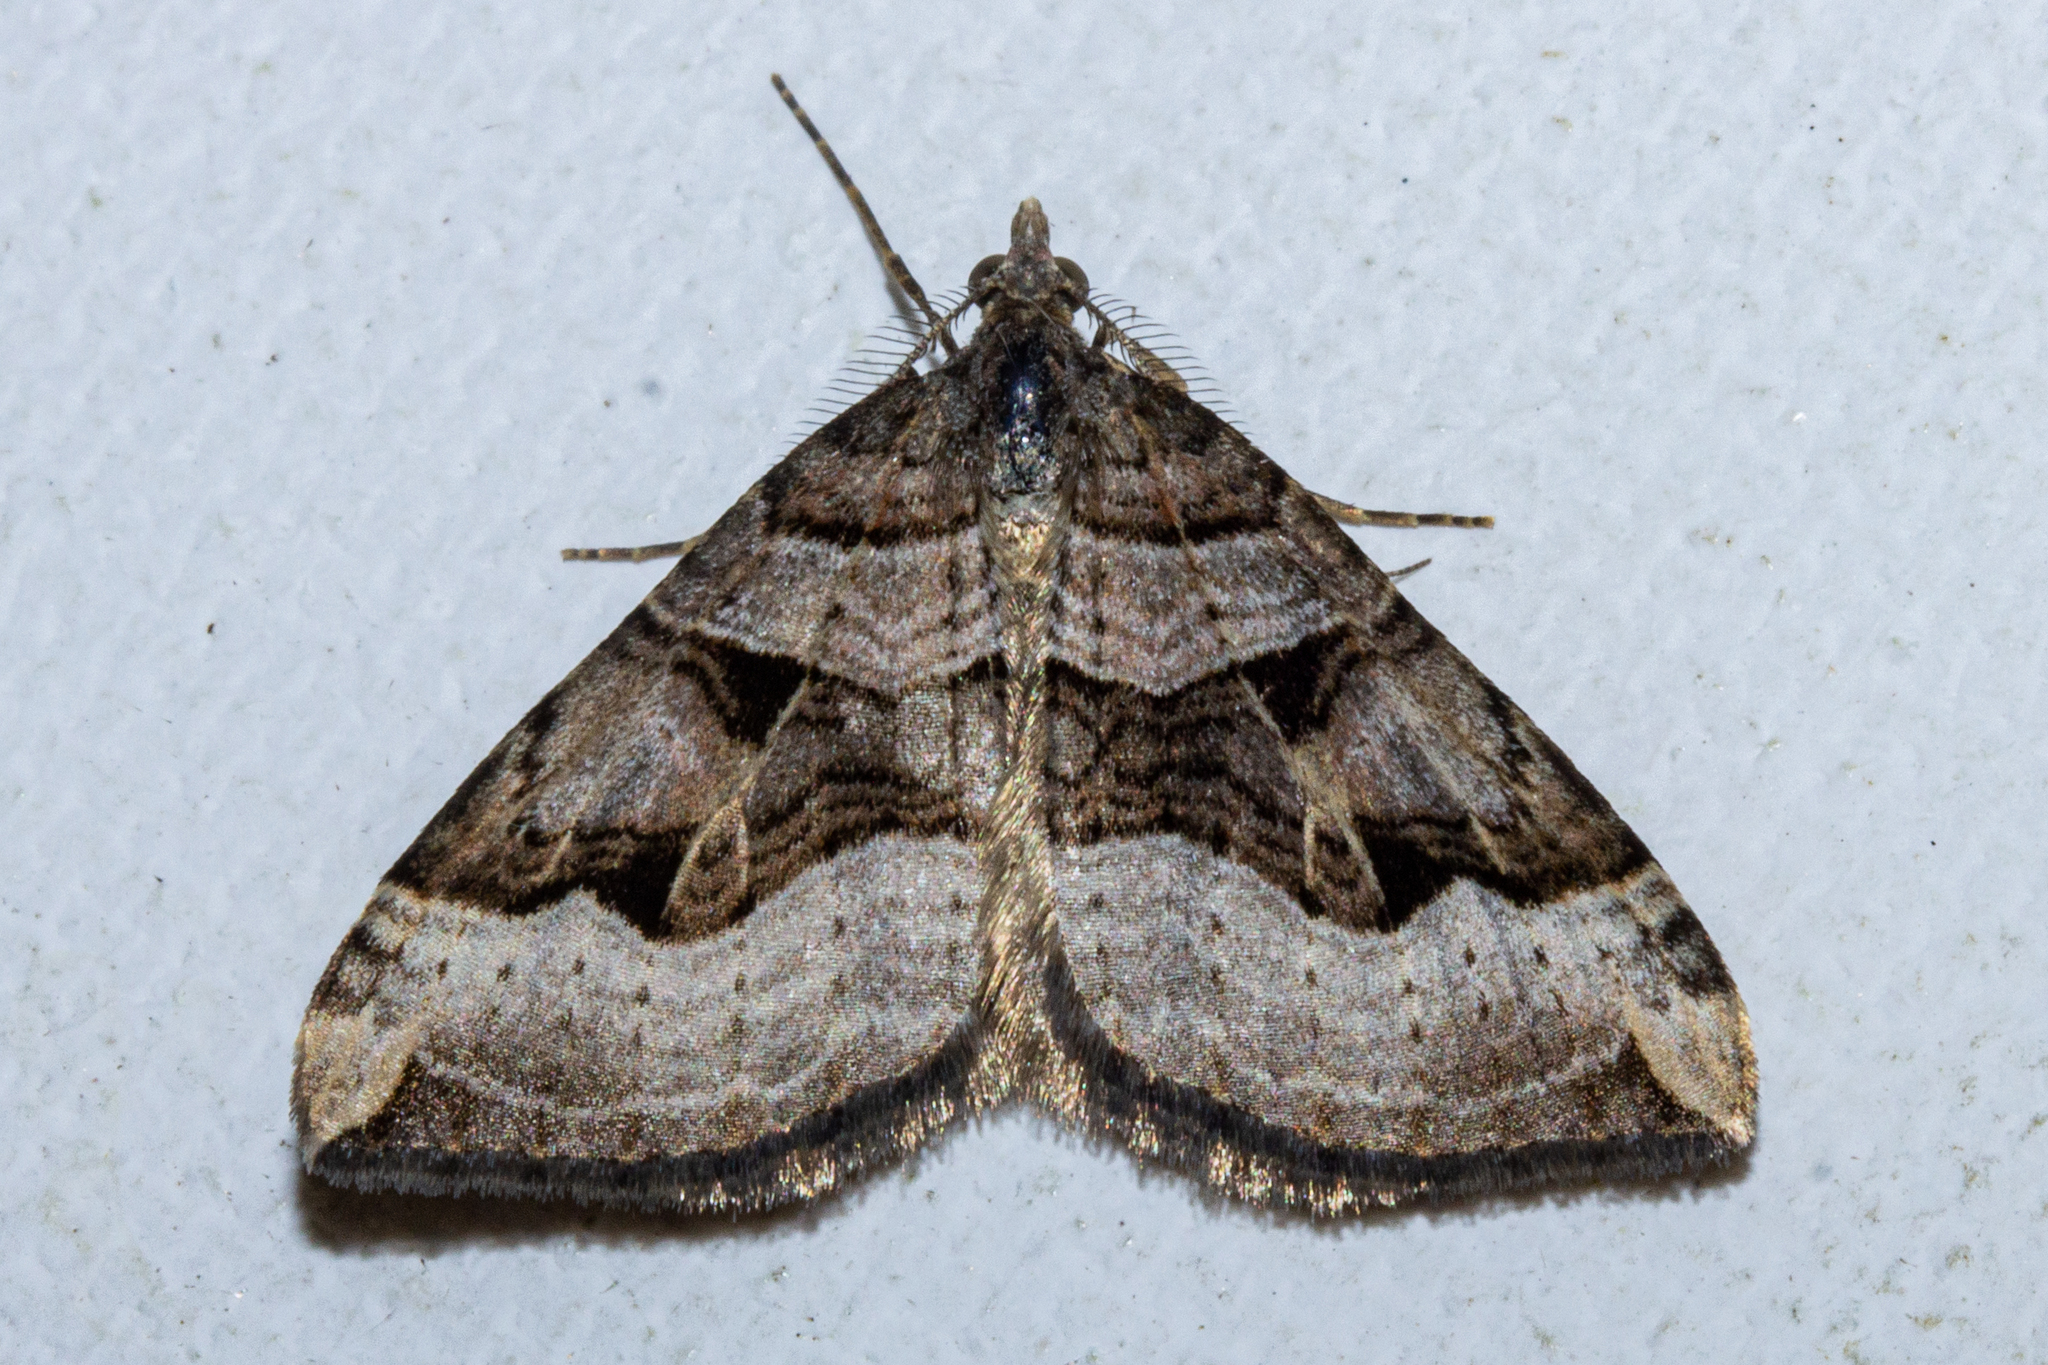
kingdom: Animalia
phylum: Arthropoda
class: Insecta
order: Lepidoptera
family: Geometridae
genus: Xanthorhoe
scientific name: Xanthorhoe semifissata
